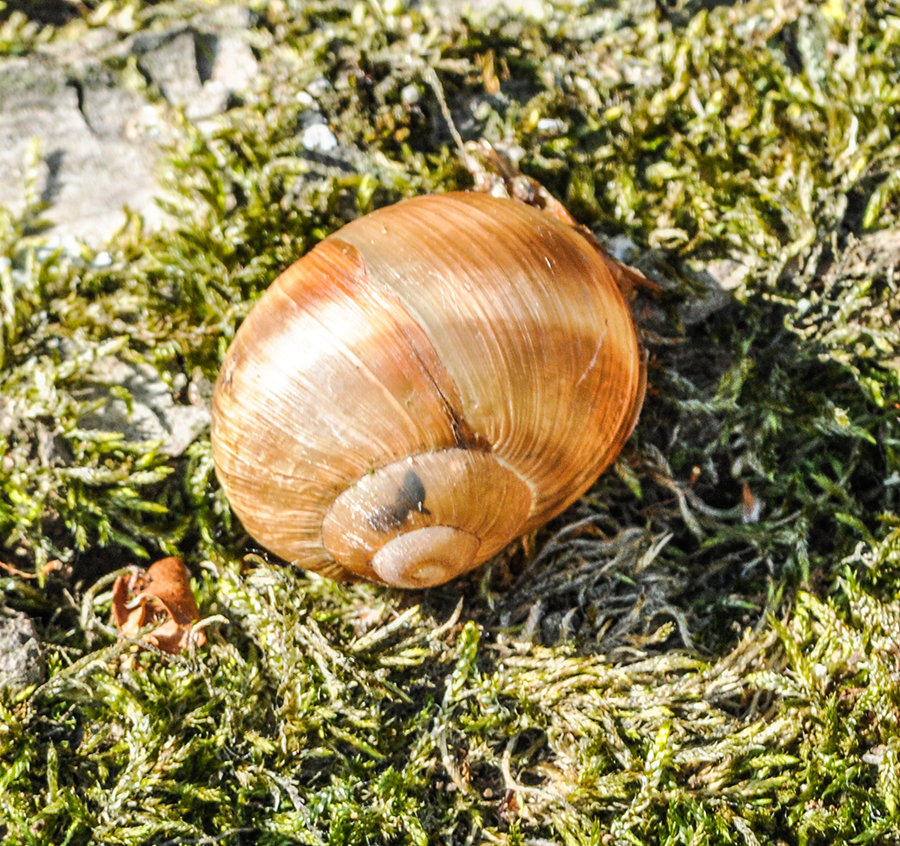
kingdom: Animalia
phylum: Mollusca
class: Gastropoda
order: Stylommatophora
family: Helicidae
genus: Helix
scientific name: Helix pomatia
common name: Roman snail
